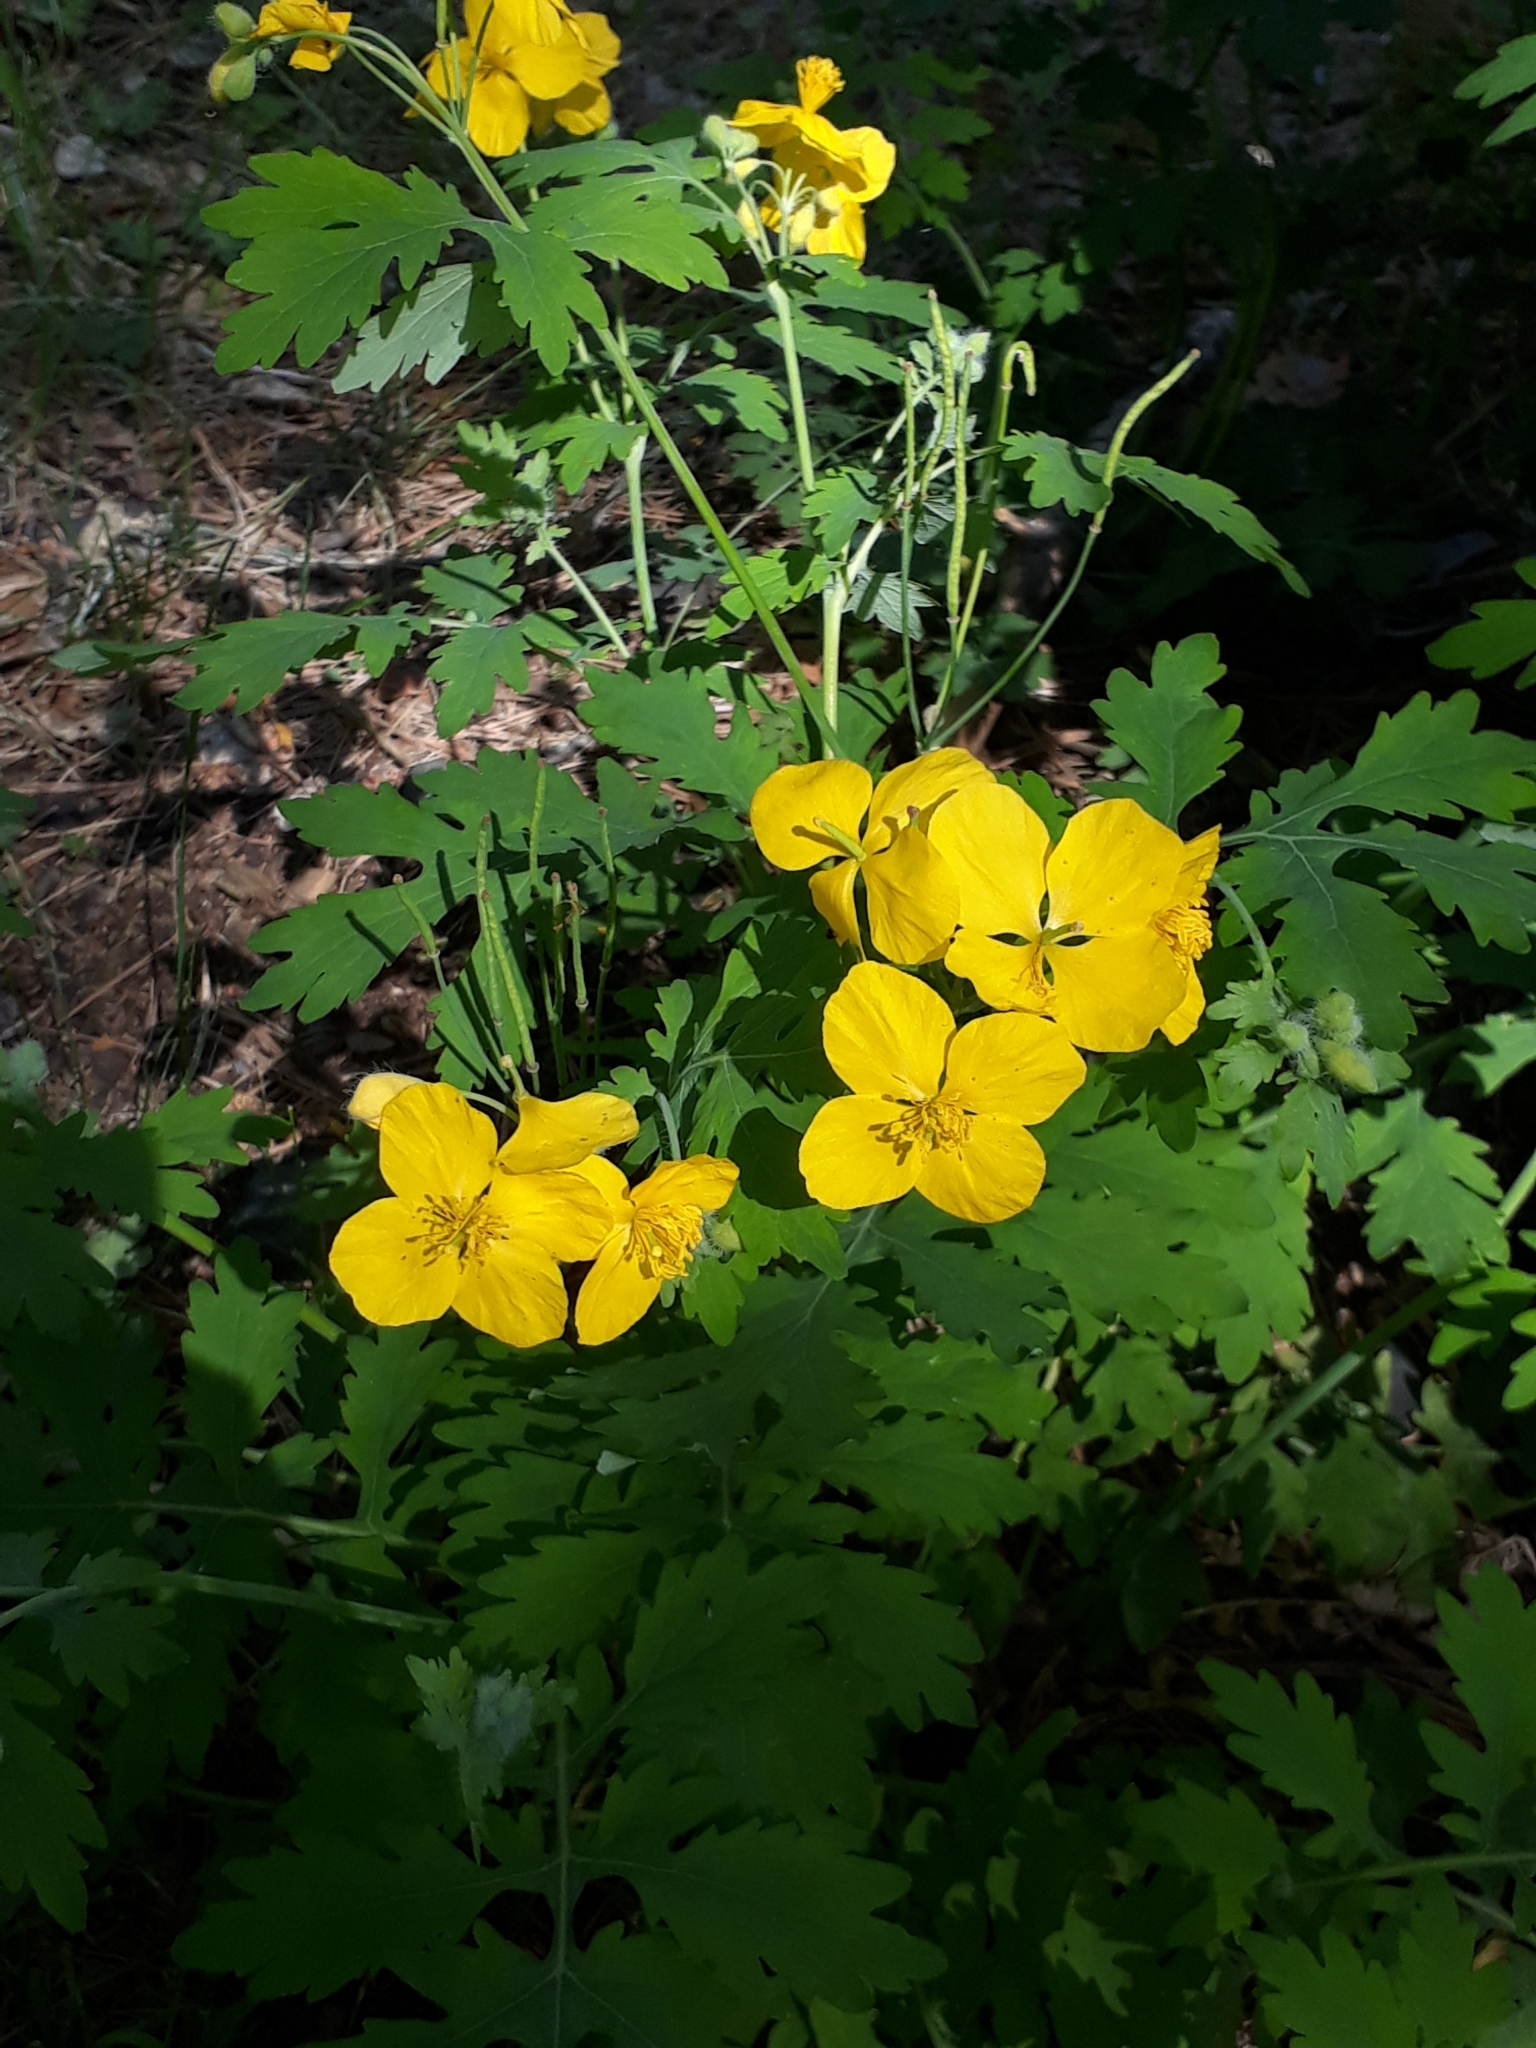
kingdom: Plantae
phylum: Tracheophyta
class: Magnoliopsida
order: Ranunculales
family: Papaveraceae
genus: Chelidonium
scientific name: Chelidonium majus
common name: Greater celandine
